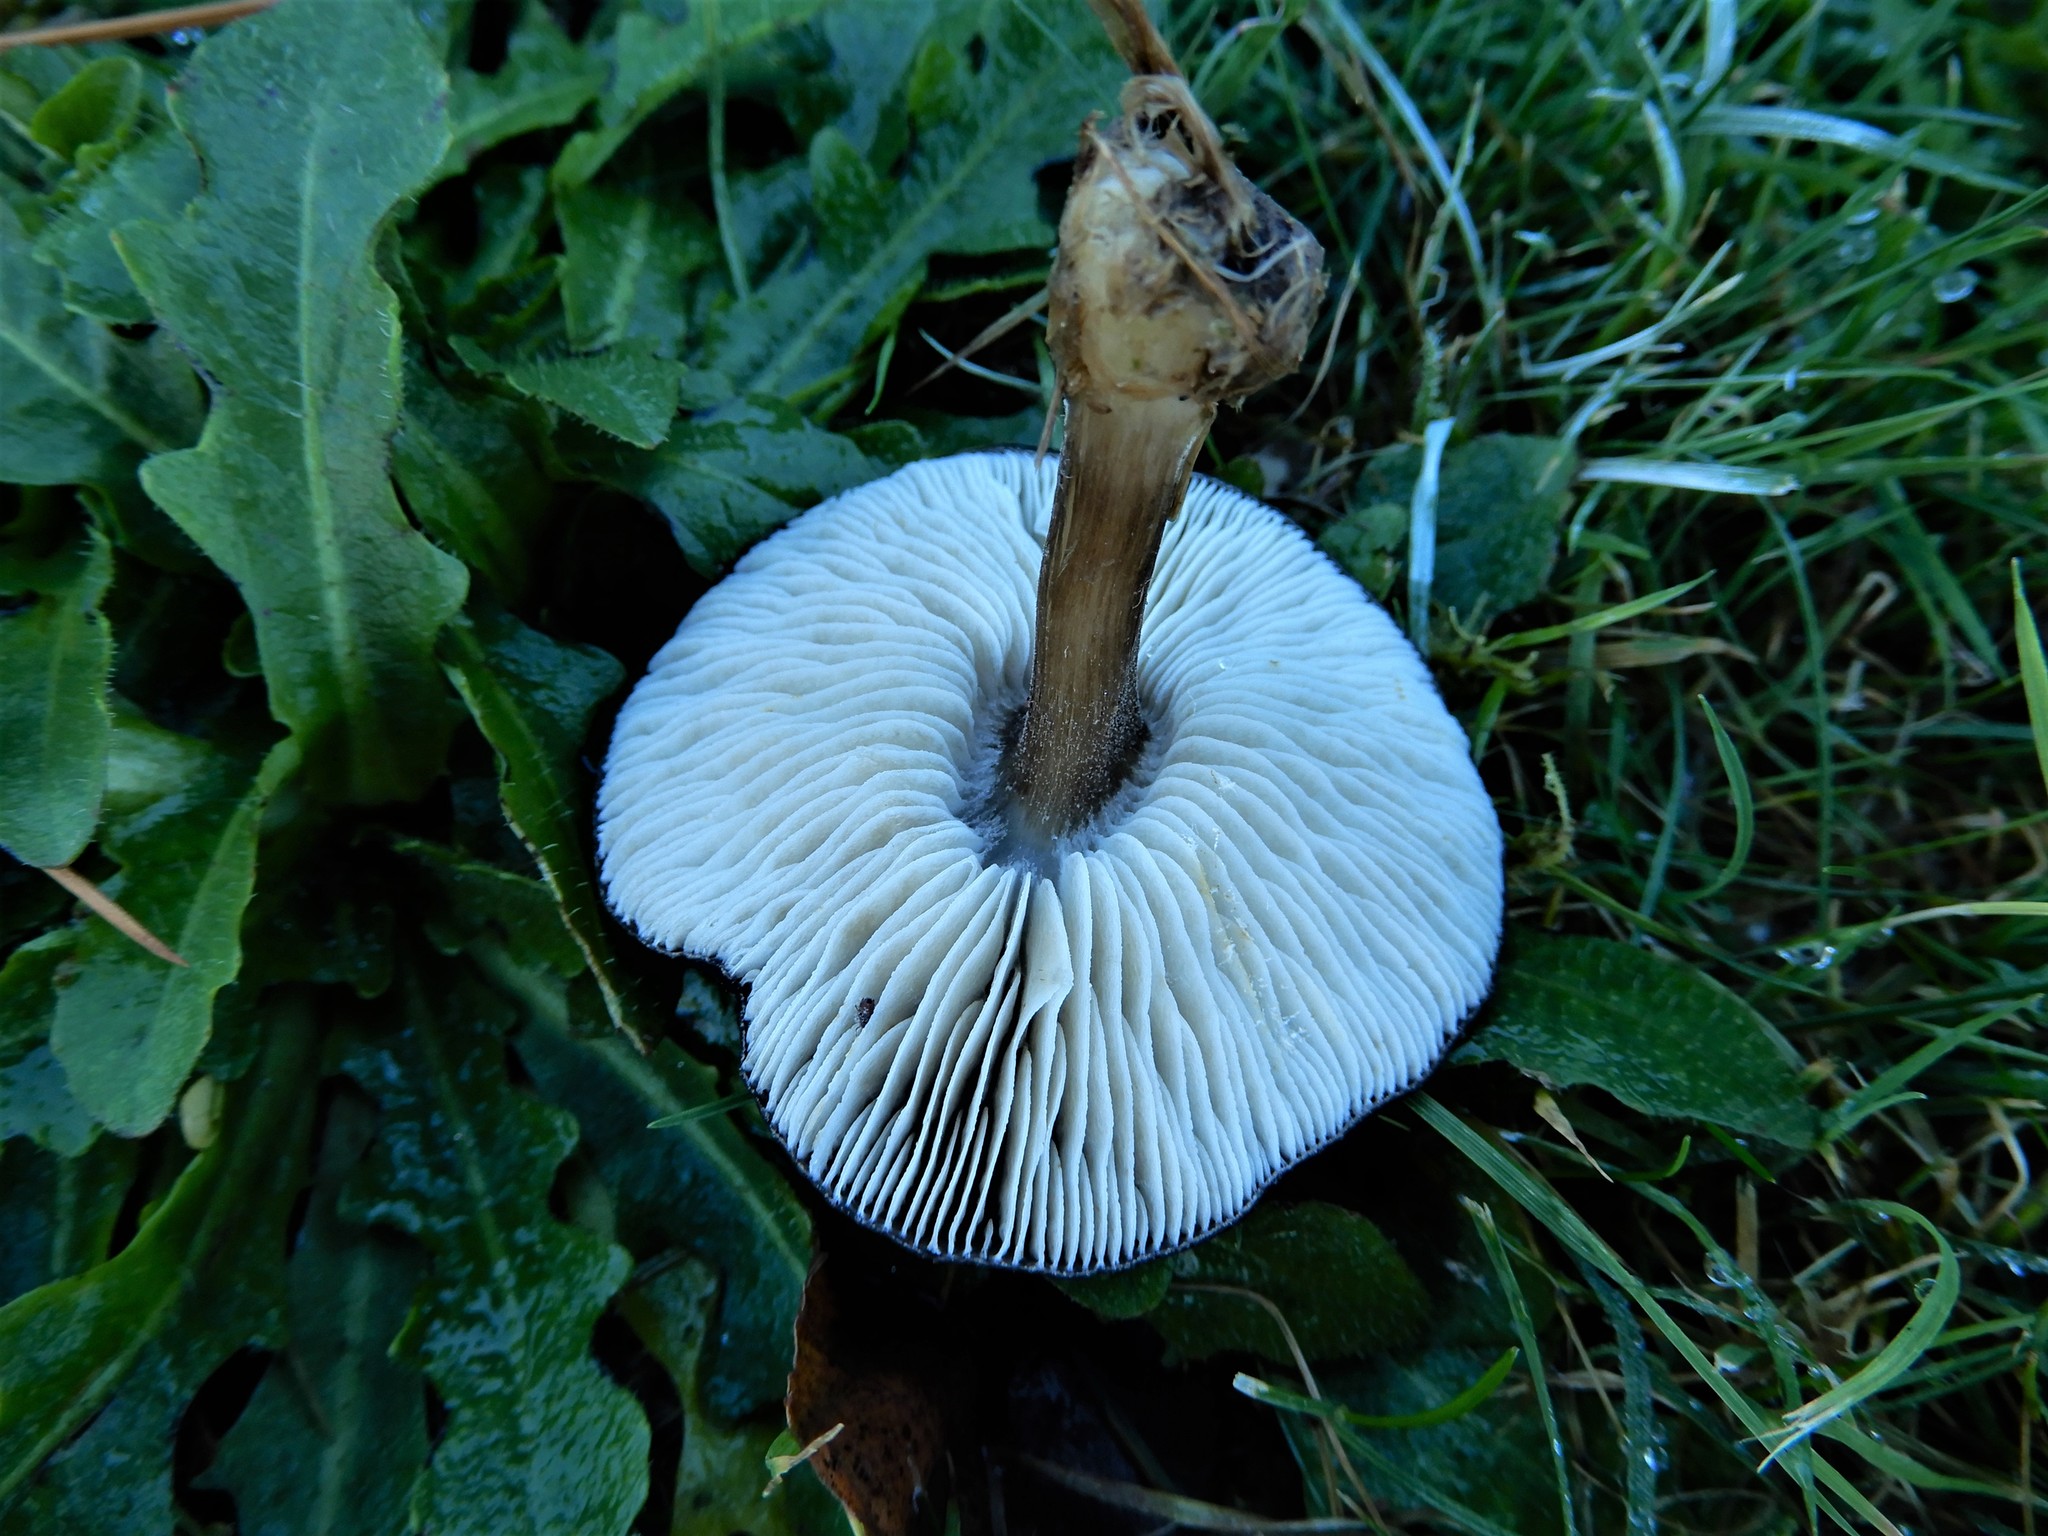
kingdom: Fungi
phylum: Basidiomycota
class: Agaricomycetes
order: Agaricales
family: Tricholomataceae
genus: Melanoleuca
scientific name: Melanoleuca fusca
